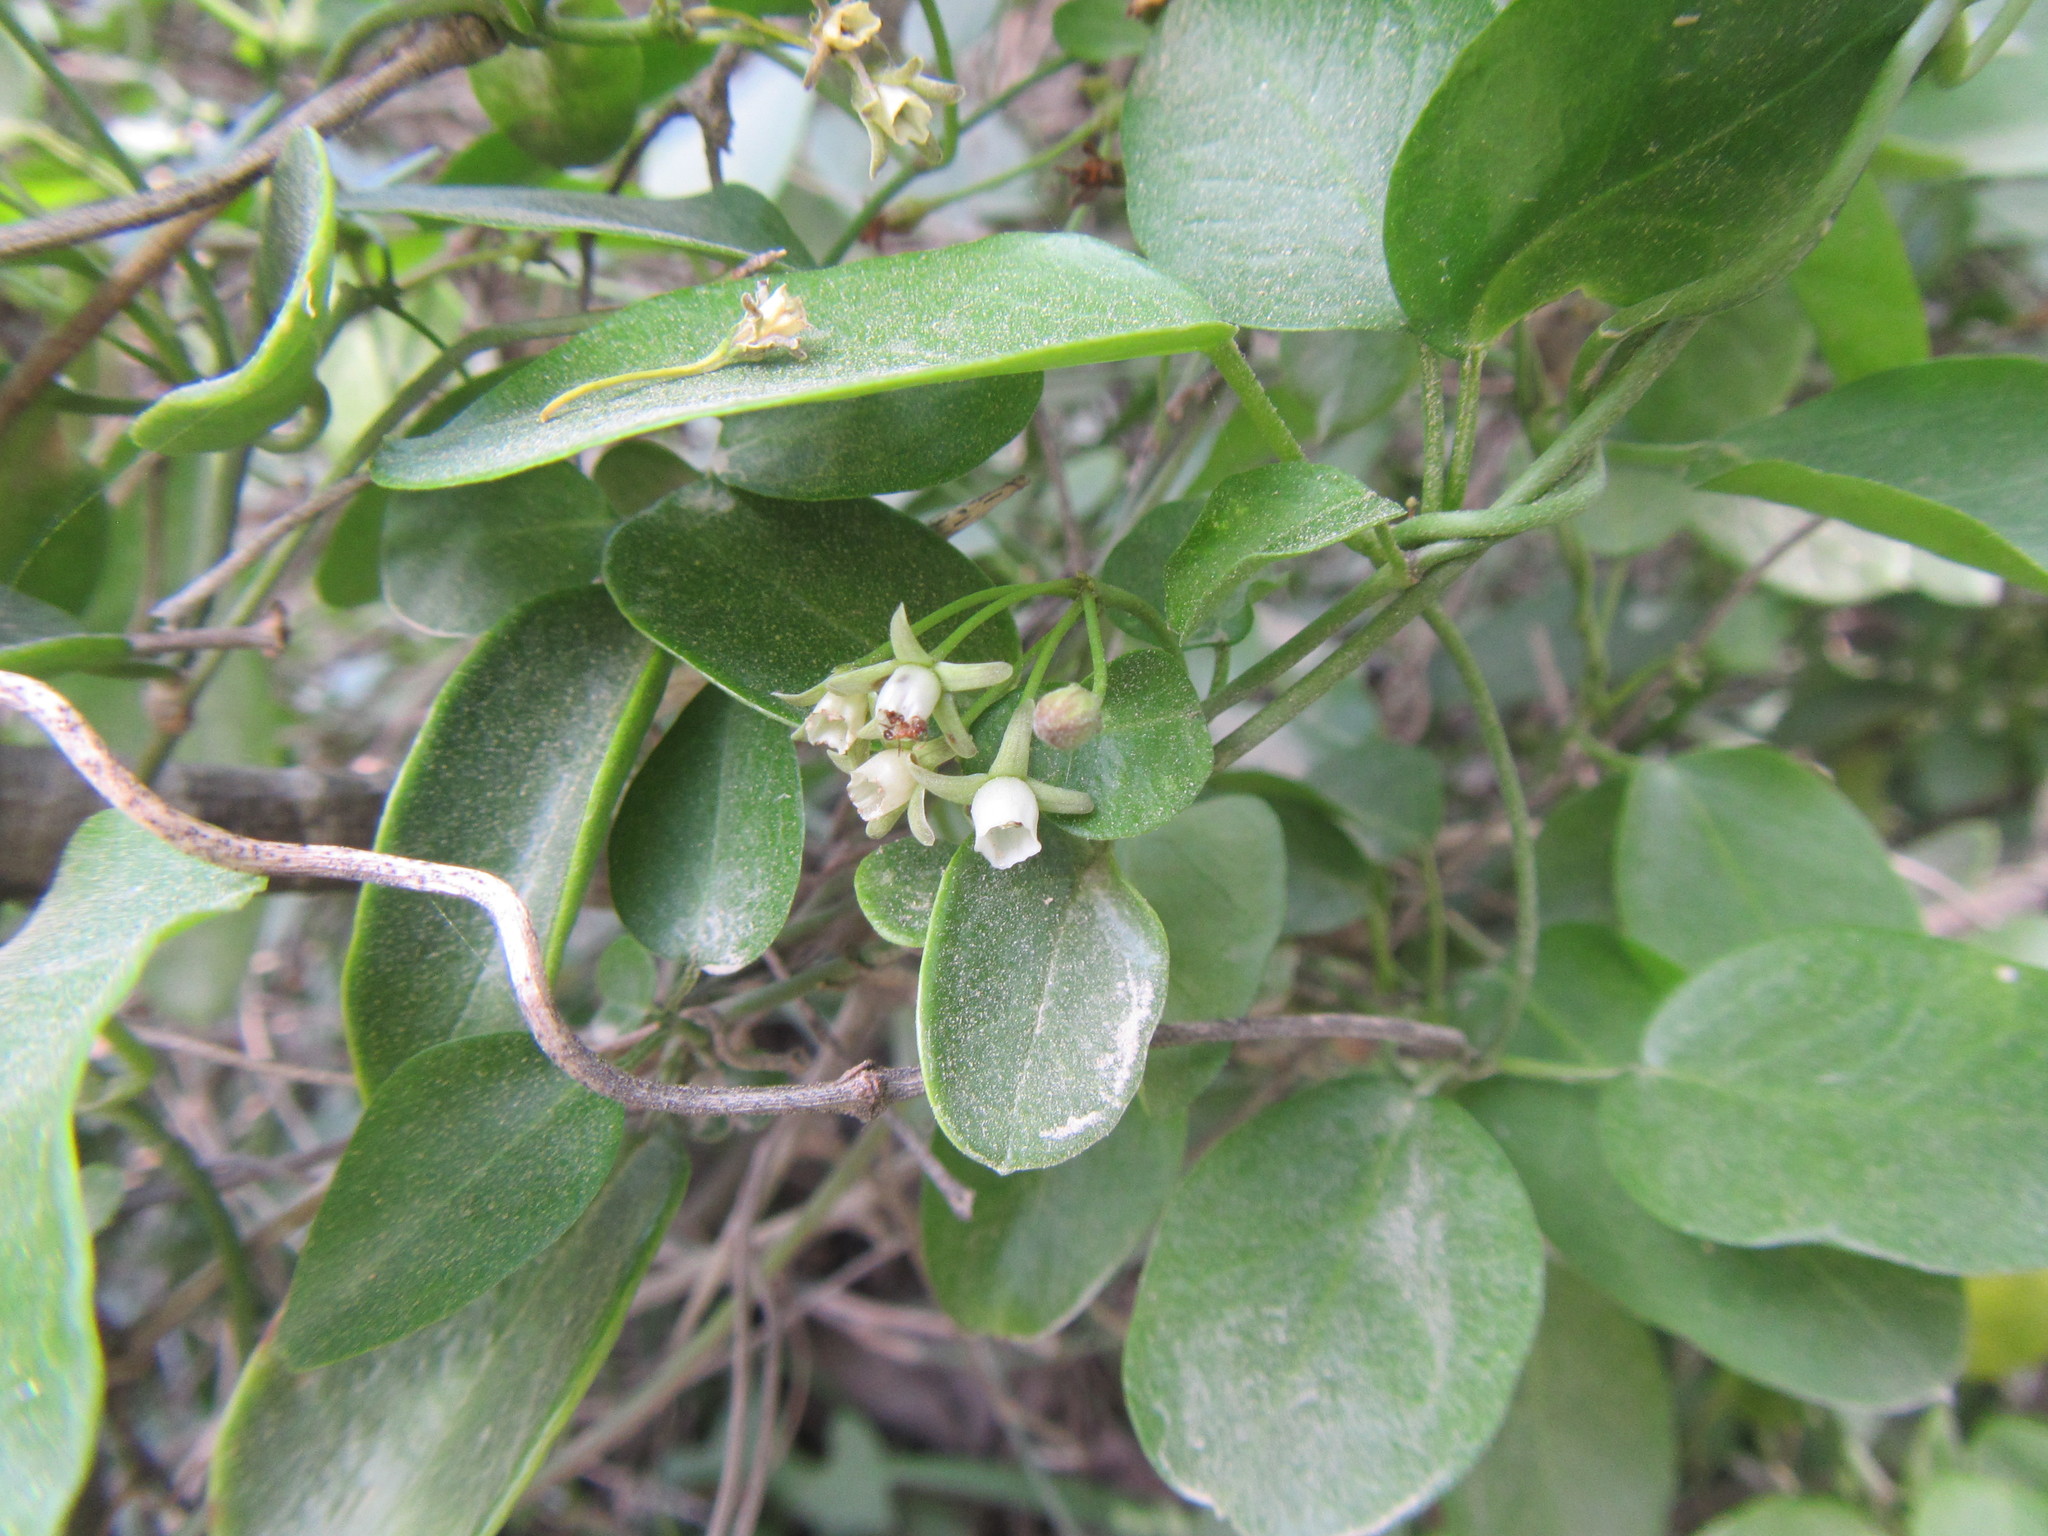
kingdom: Plantae
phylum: Tracheophyta
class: Magnoliopsida
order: Gentianales
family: Apocynaceae
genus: Cynanchum
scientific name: Cynanchum ellipticum
